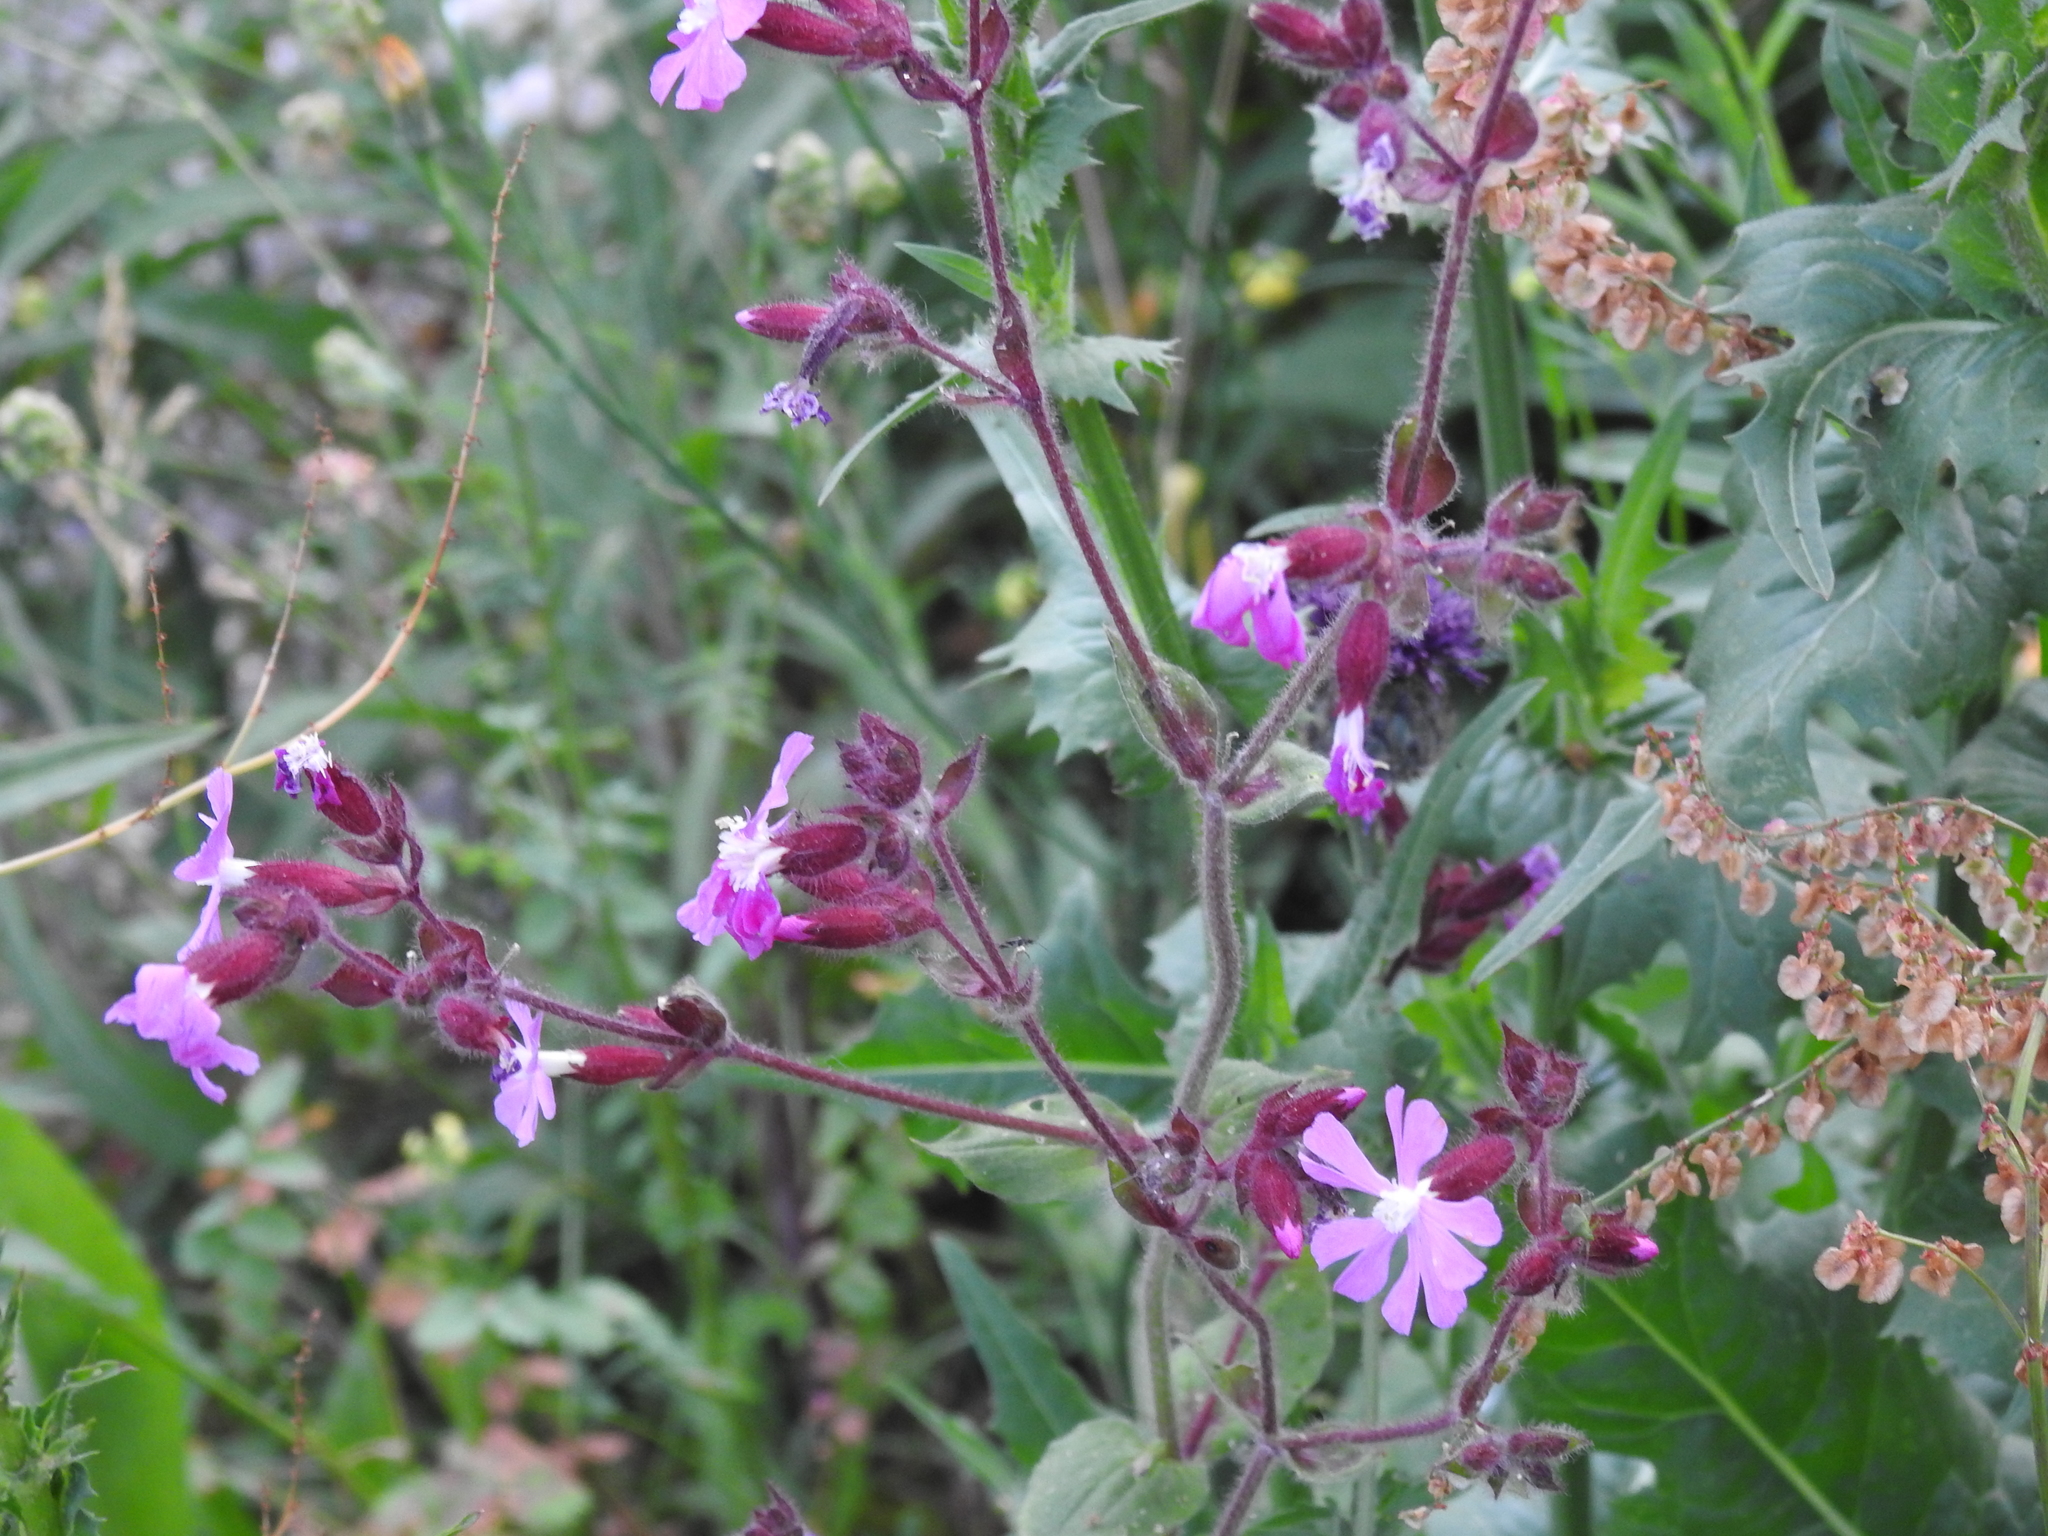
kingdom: Plantae
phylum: Tracheophyta
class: Magnoliopsida
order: Caryophyllales
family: Caryophyllaceae
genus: Silene
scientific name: Silene dioica
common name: Red campion
